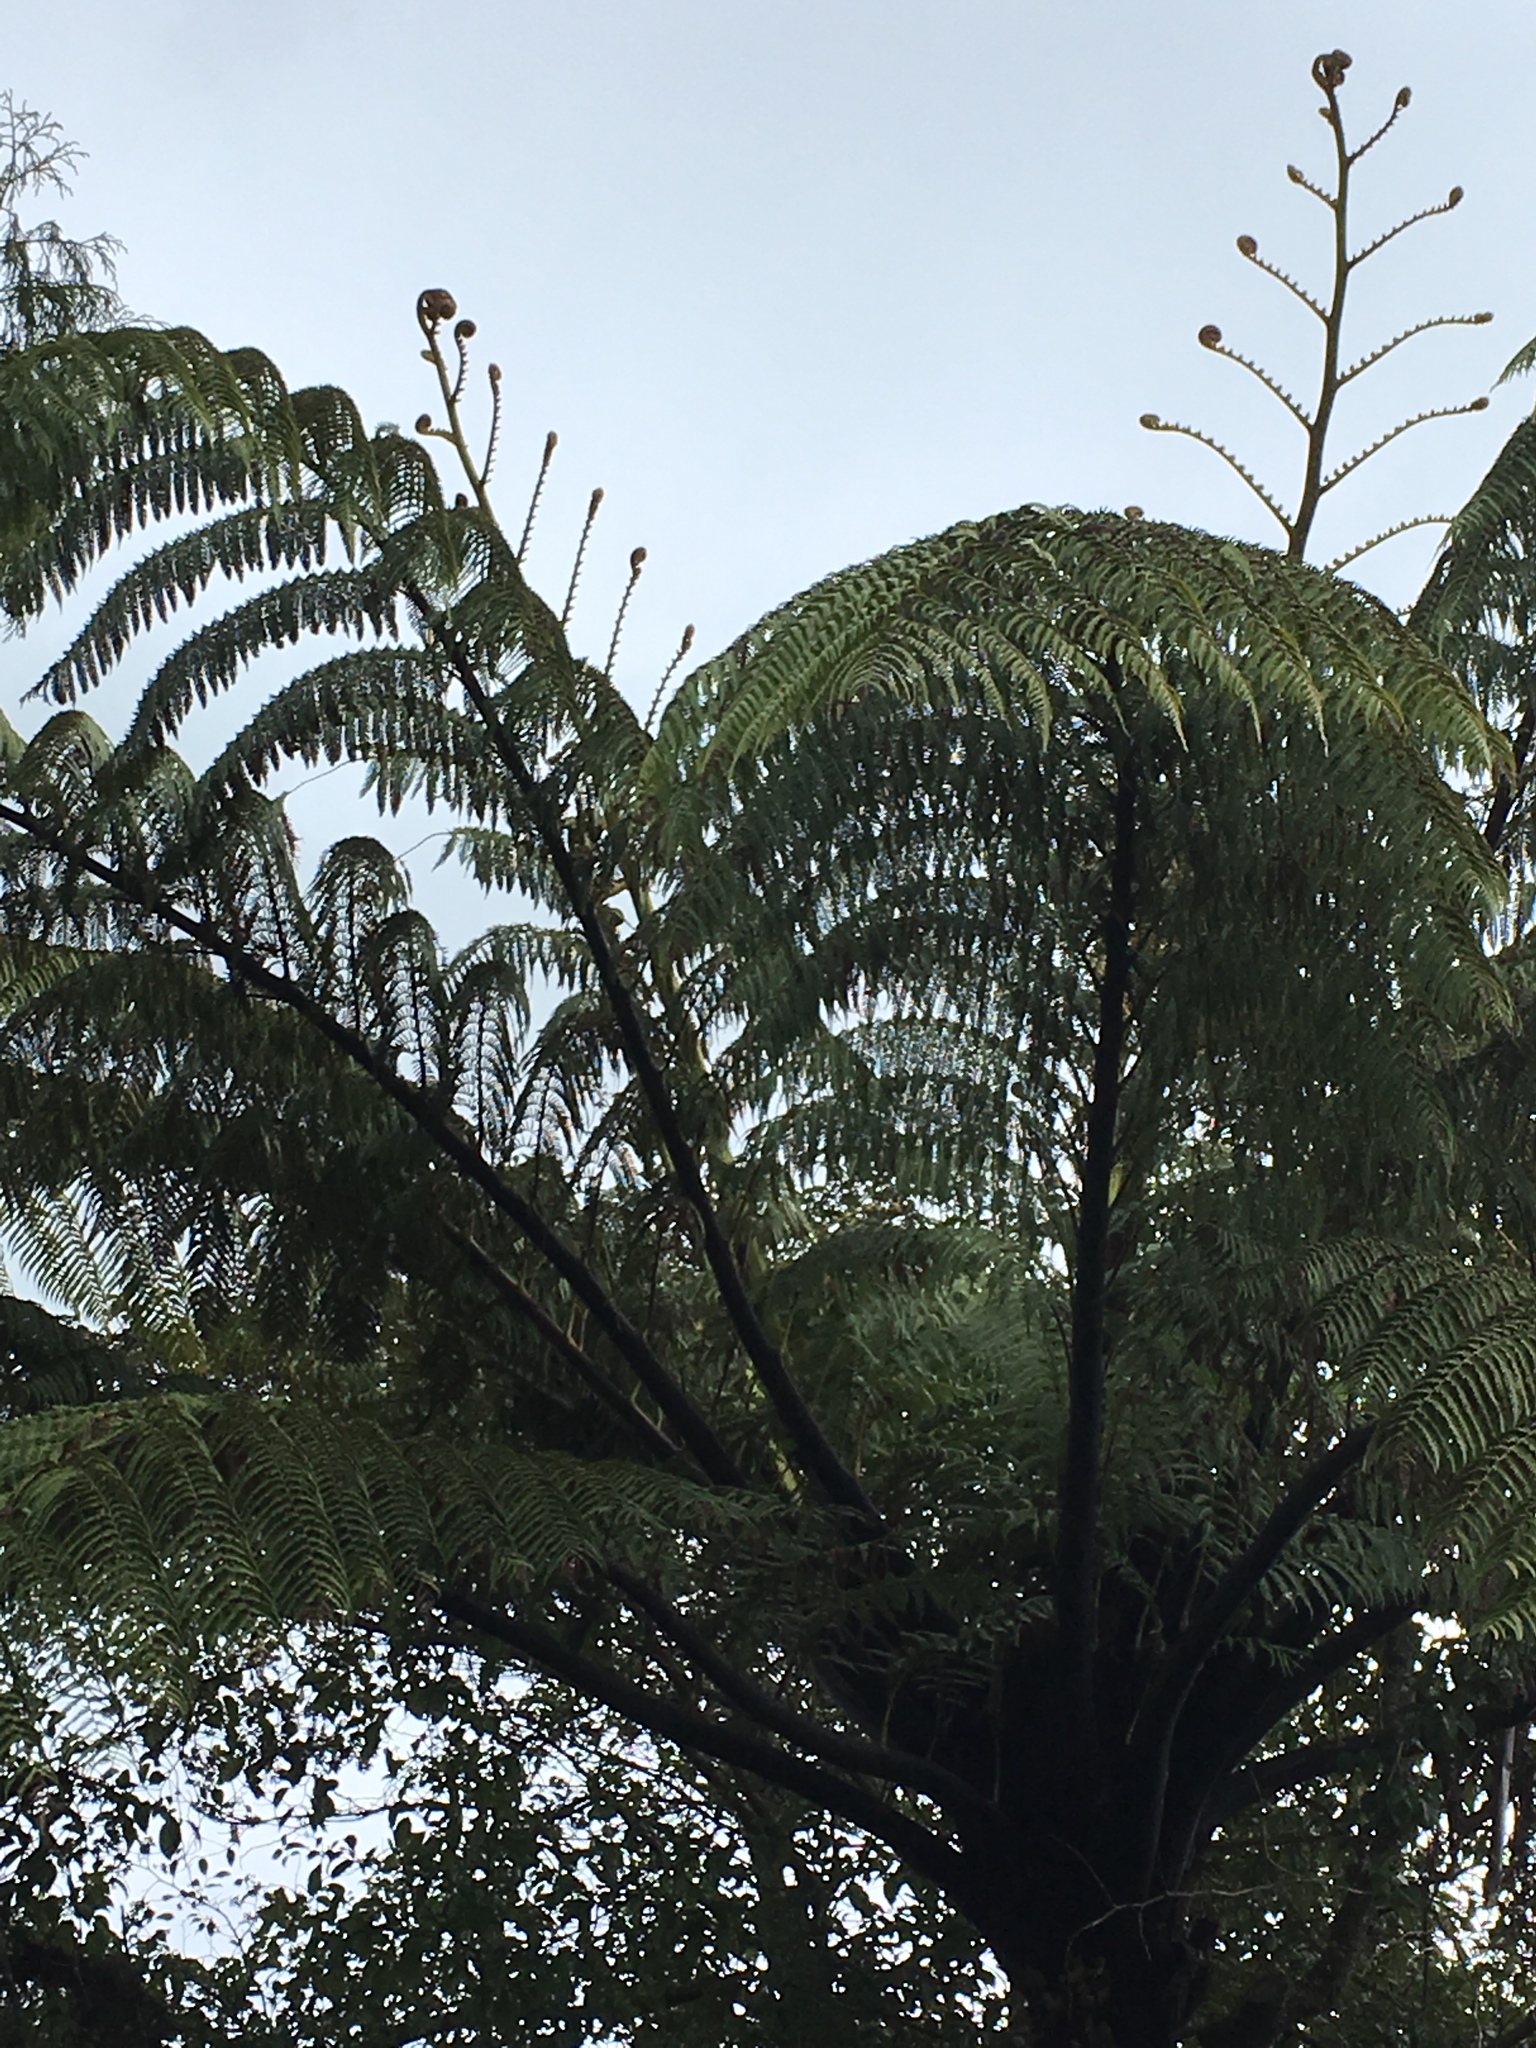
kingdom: Plantae
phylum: Tracheophyta
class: Polypodiopsida
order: Cyatheales
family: Cyatheaceae
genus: Sphaeropteris
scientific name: Sphaeropteris medullaris
